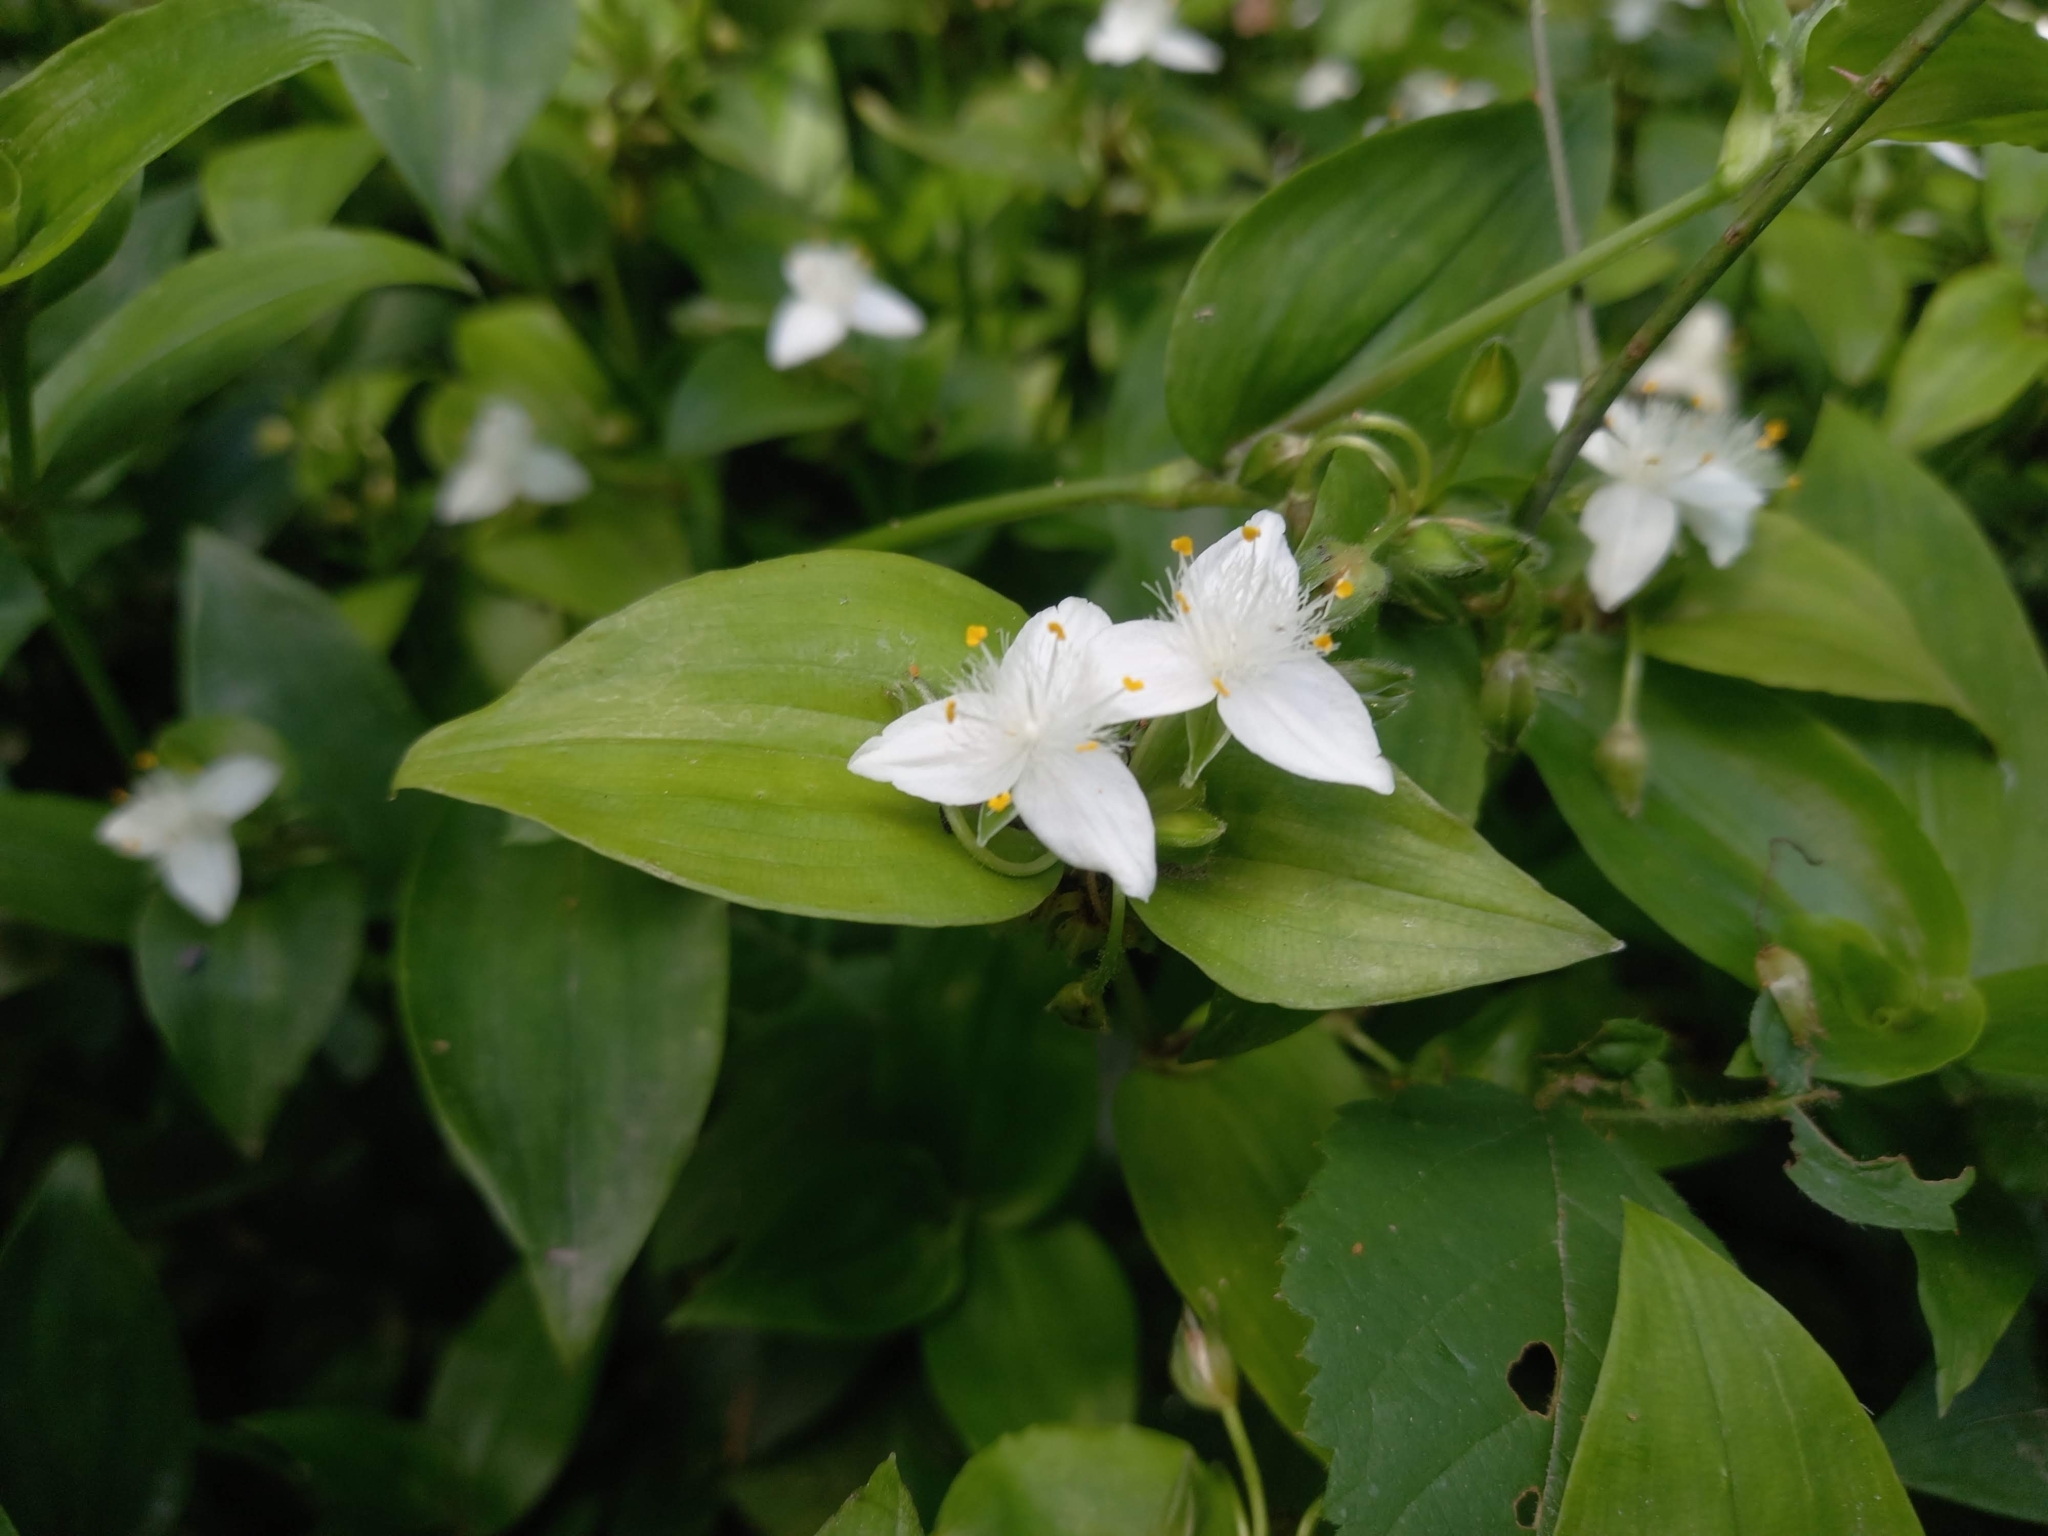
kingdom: Plantae
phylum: Tracheophyta
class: Liliopsida
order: Commelinales
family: Commelinaceae
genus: Tradescantia
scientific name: Tradescantia fluminensis
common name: Wandering-jew
